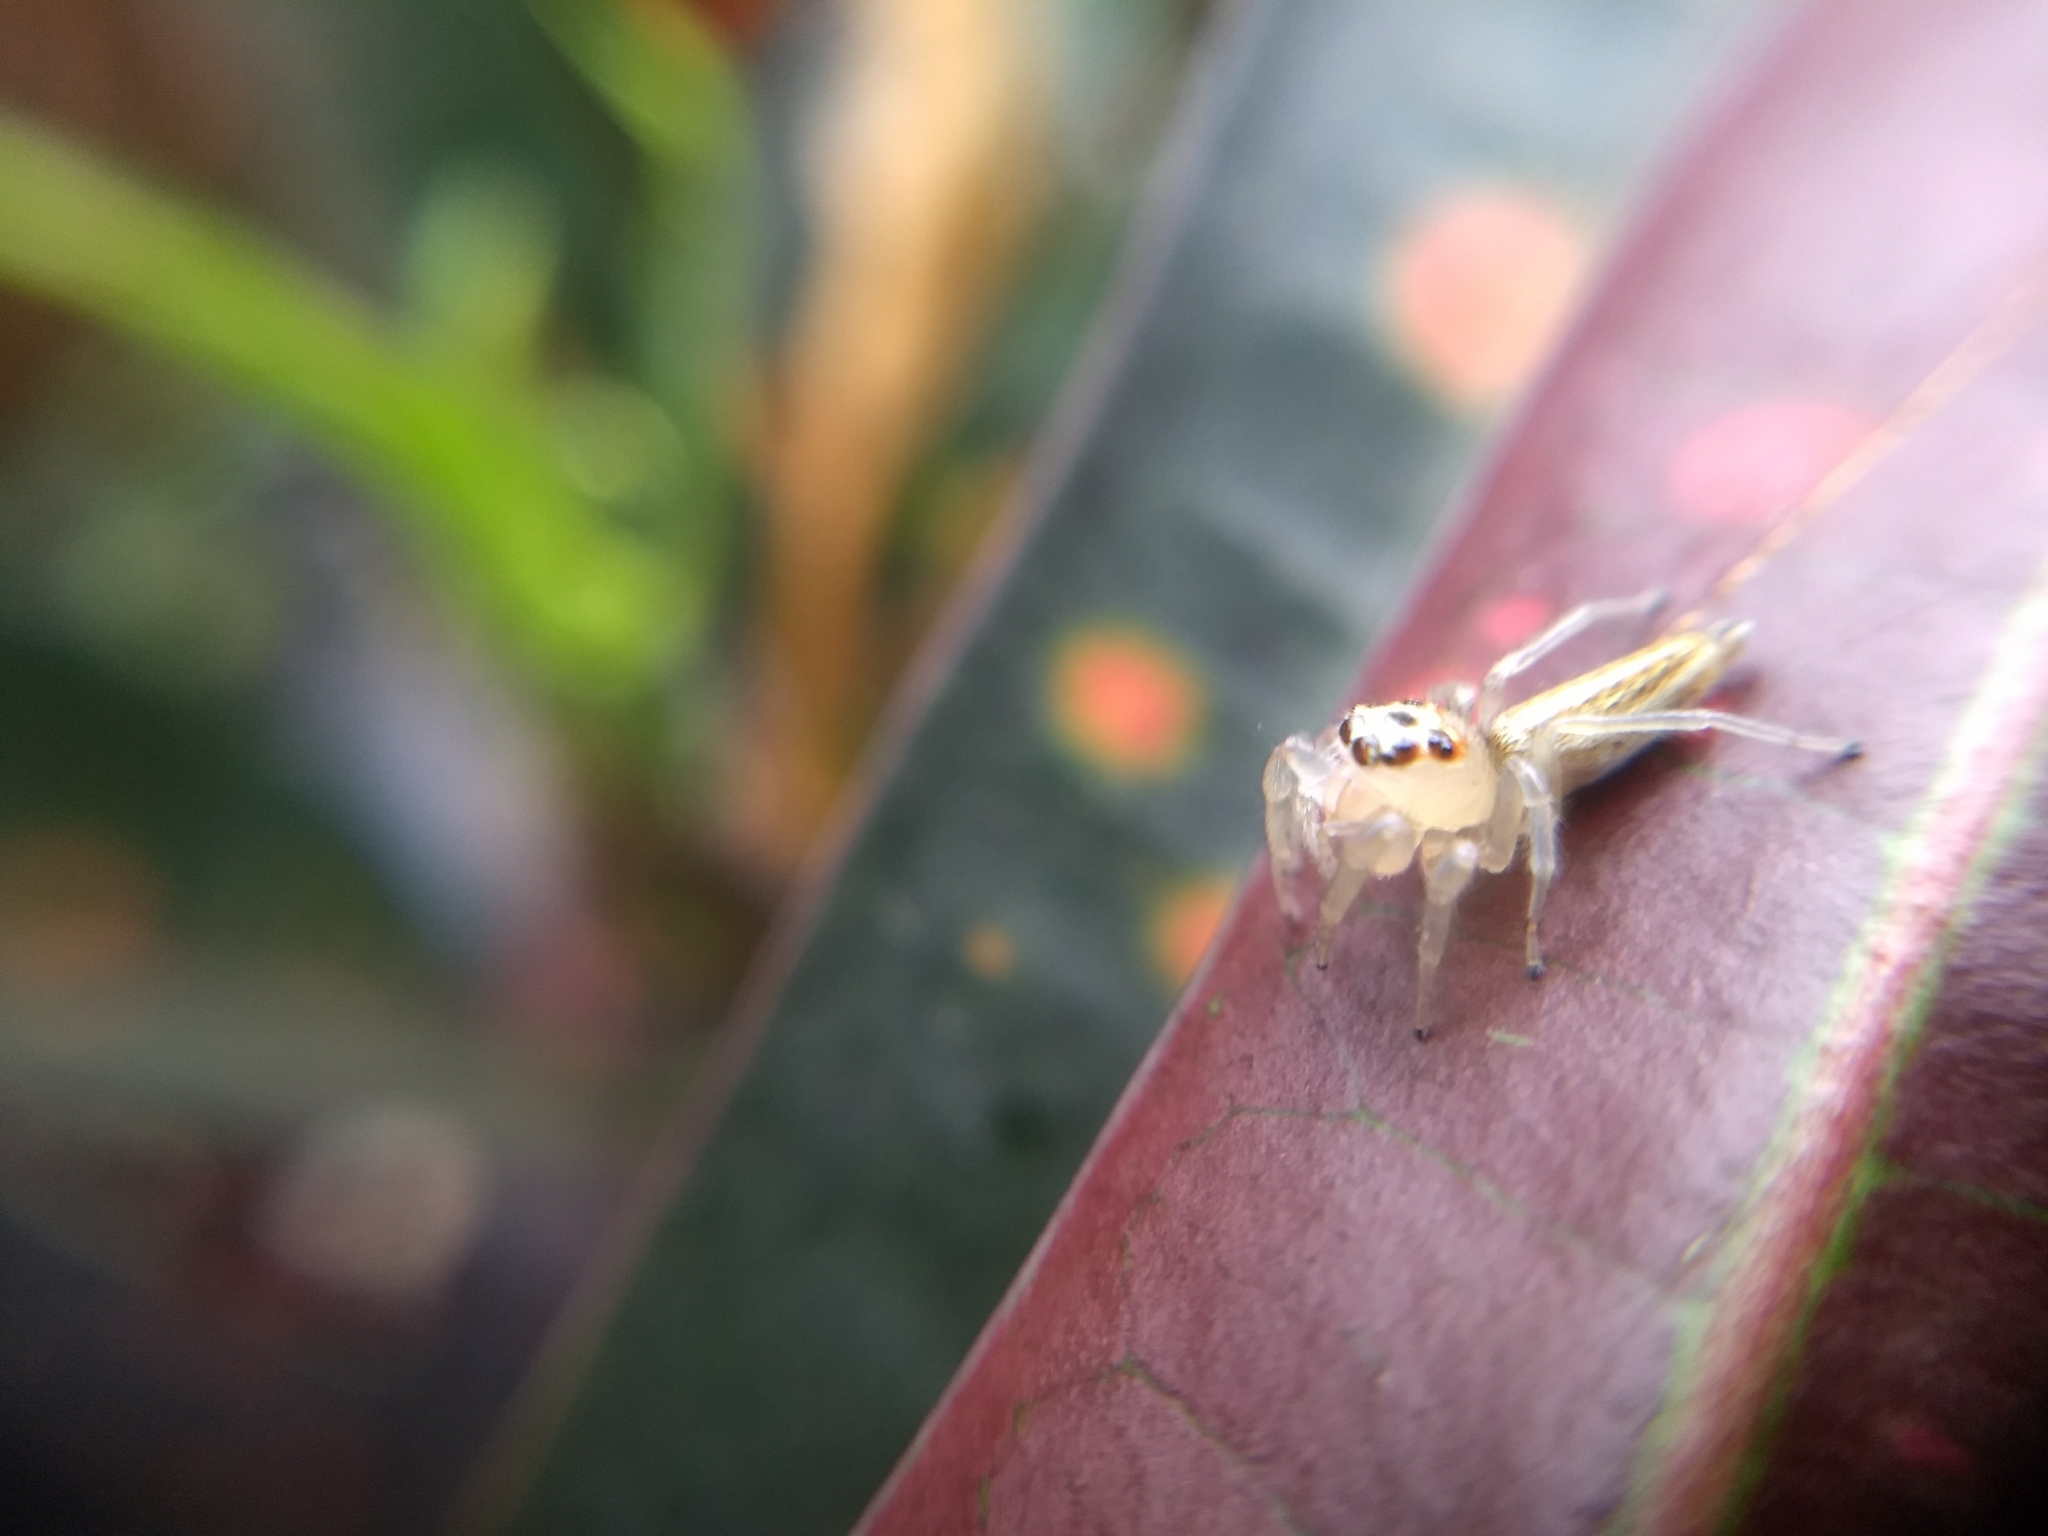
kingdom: Animalia
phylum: Arthropoda
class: Arachnida
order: Araneae
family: Salticidae
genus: Colonus
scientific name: Colonus sylvanus
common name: Jumping spiders
